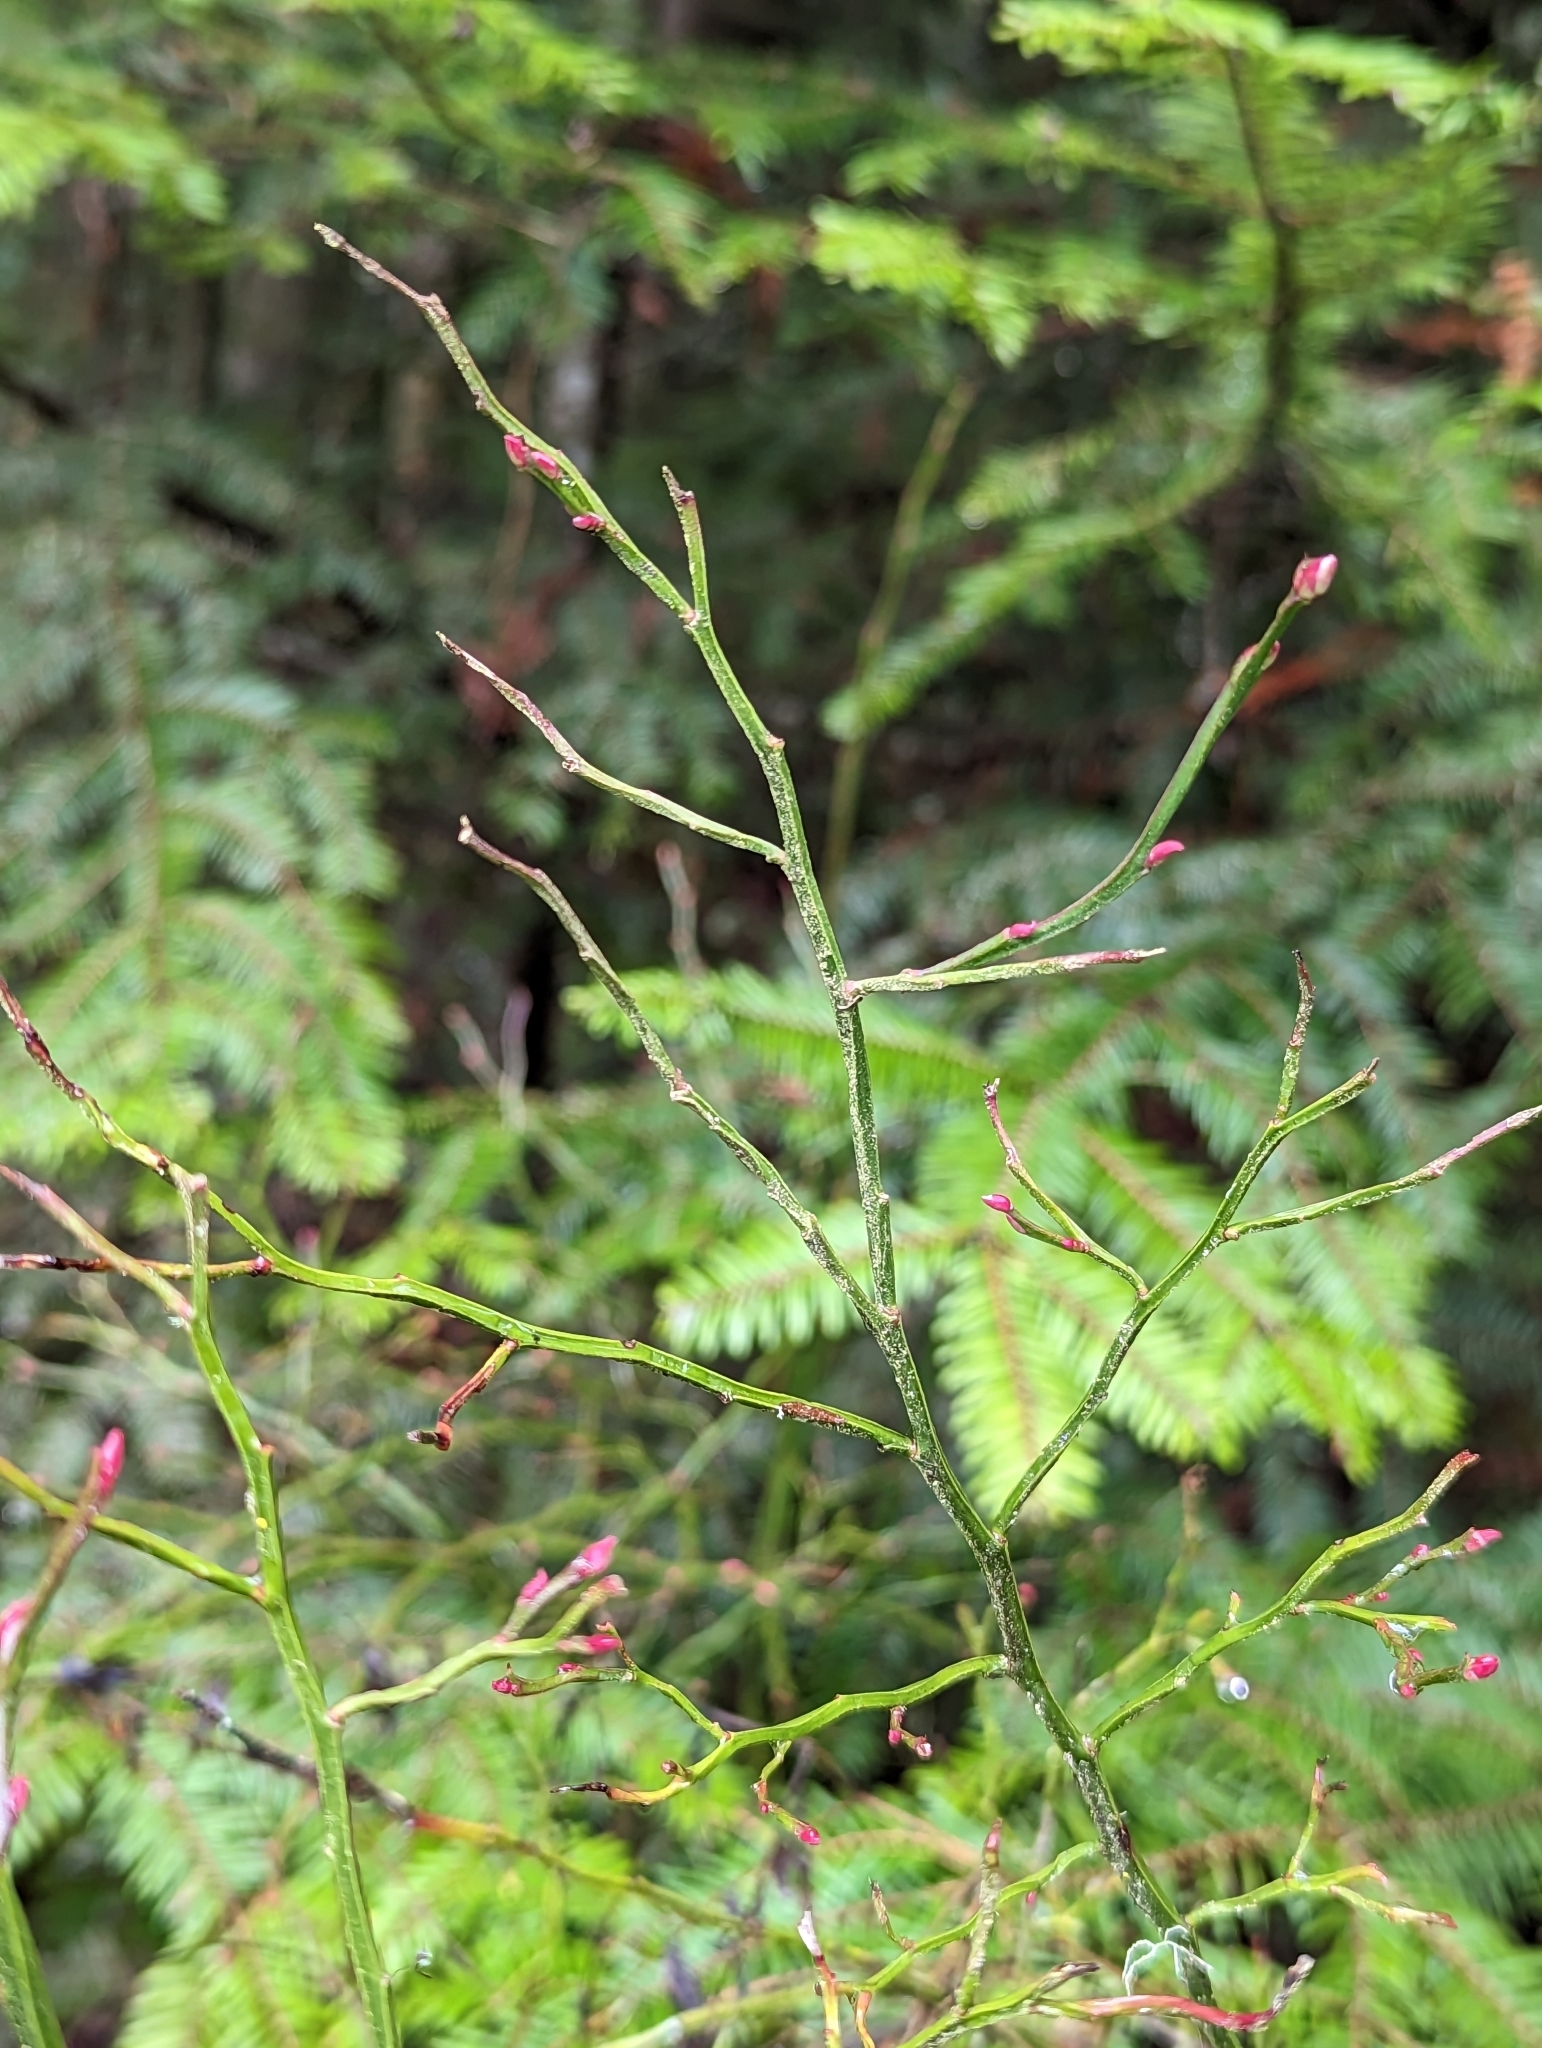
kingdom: Plantae
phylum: Tracheophyta
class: Magnoliopsida
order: Ericales
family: Ericaceae
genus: Vaccinium
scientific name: Vaccinium parvifolium
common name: Red-huckleberry
